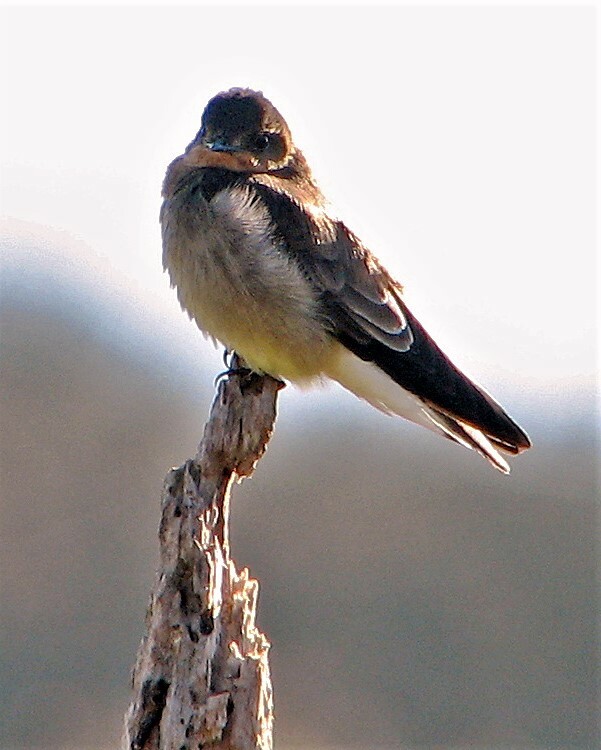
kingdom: Animalia
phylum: Chordata
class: Aves
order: Passeriformes
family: Hirundinidae
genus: Stelgidopteryx
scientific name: Stelgidopteryx ruficollis
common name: Southern rough-winged swallow
